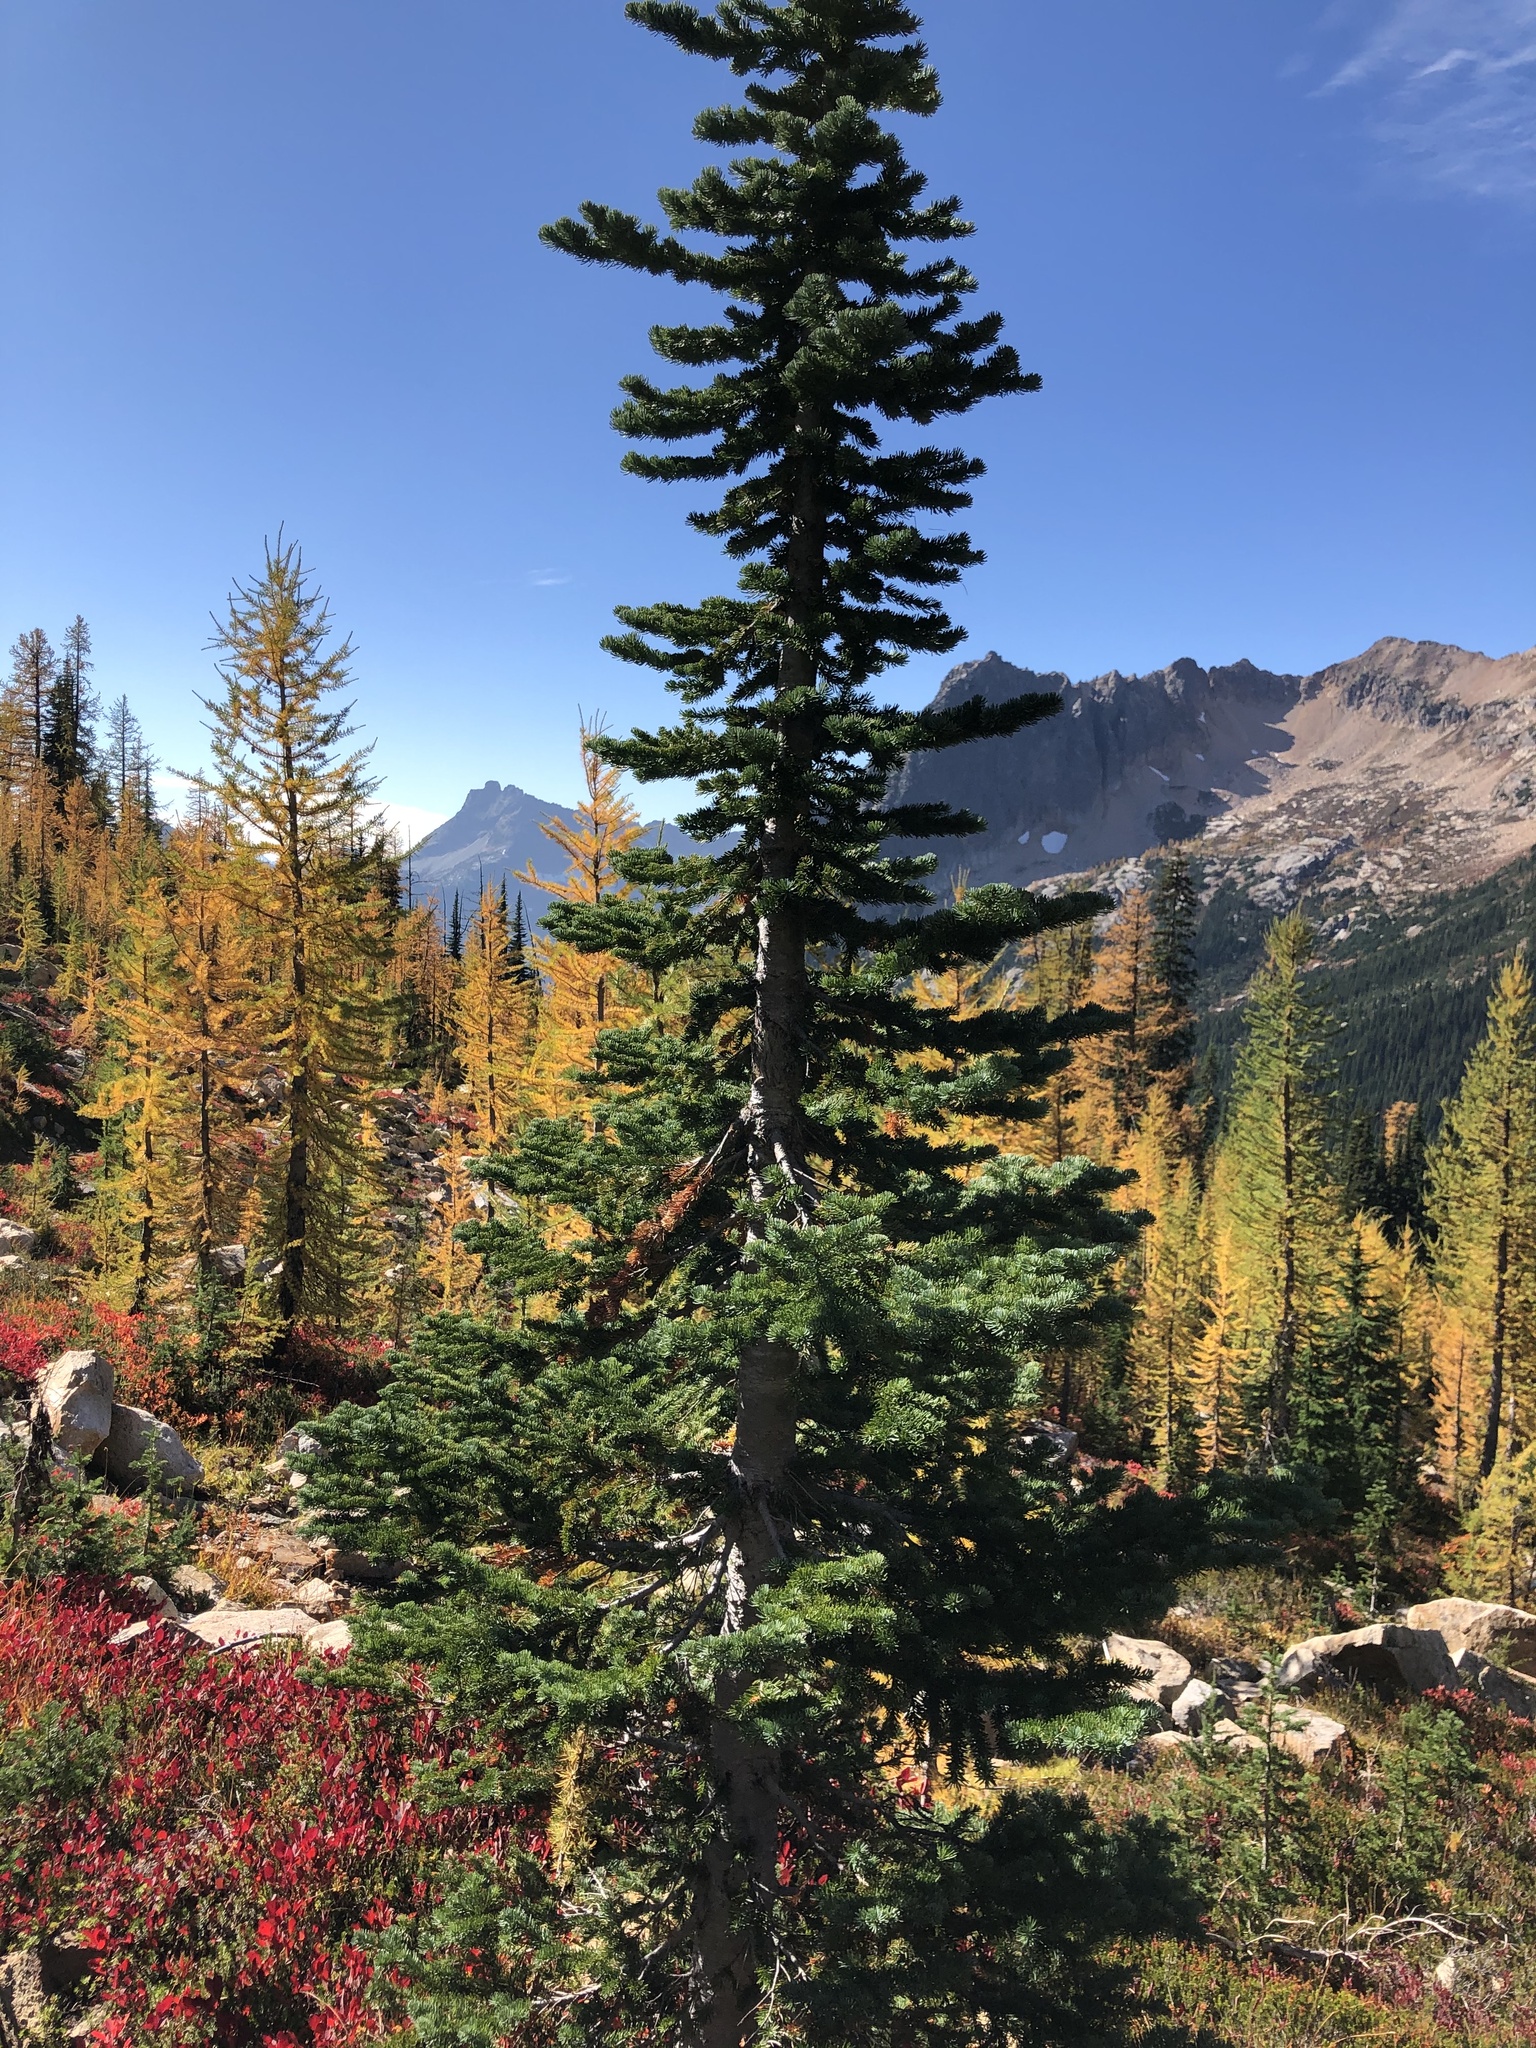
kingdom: Plantae
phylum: Tracheophyta
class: Pinopsida
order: Pinales
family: Pinaceae
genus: Abies
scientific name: Abies lasiocarpa
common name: Subalpine fir
